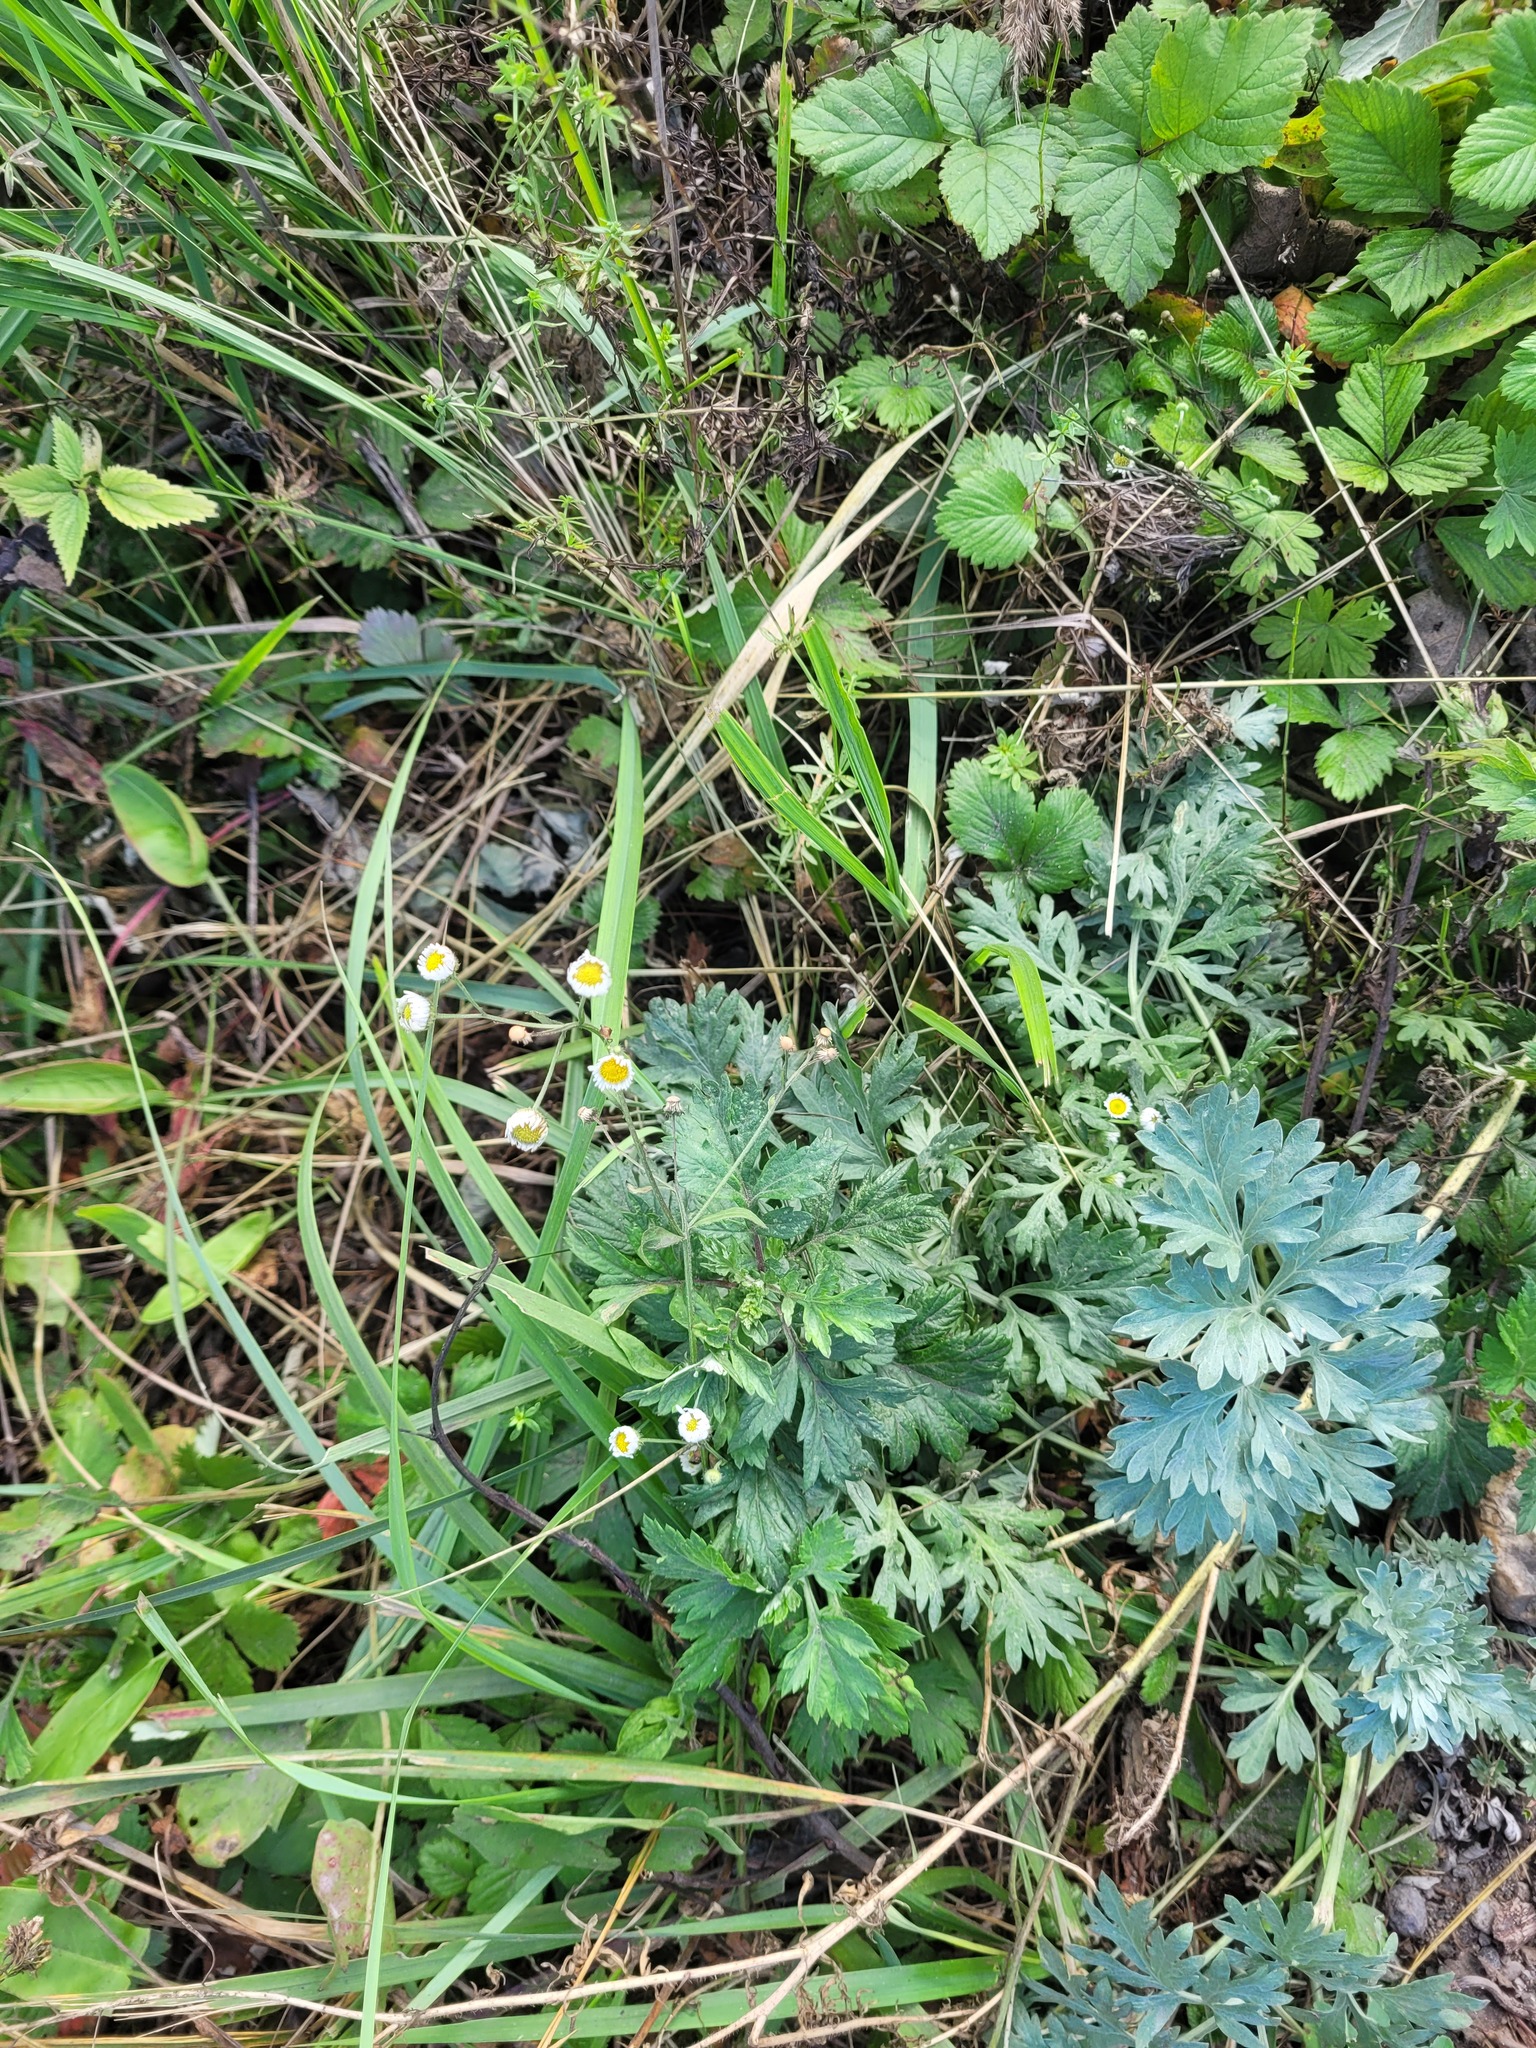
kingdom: Plantae
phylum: Tracheophyta
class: Magnoliopsida
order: Asterales
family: Asteraceae
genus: Artemisia
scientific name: Artemisia vulgaris
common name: Mugwort
